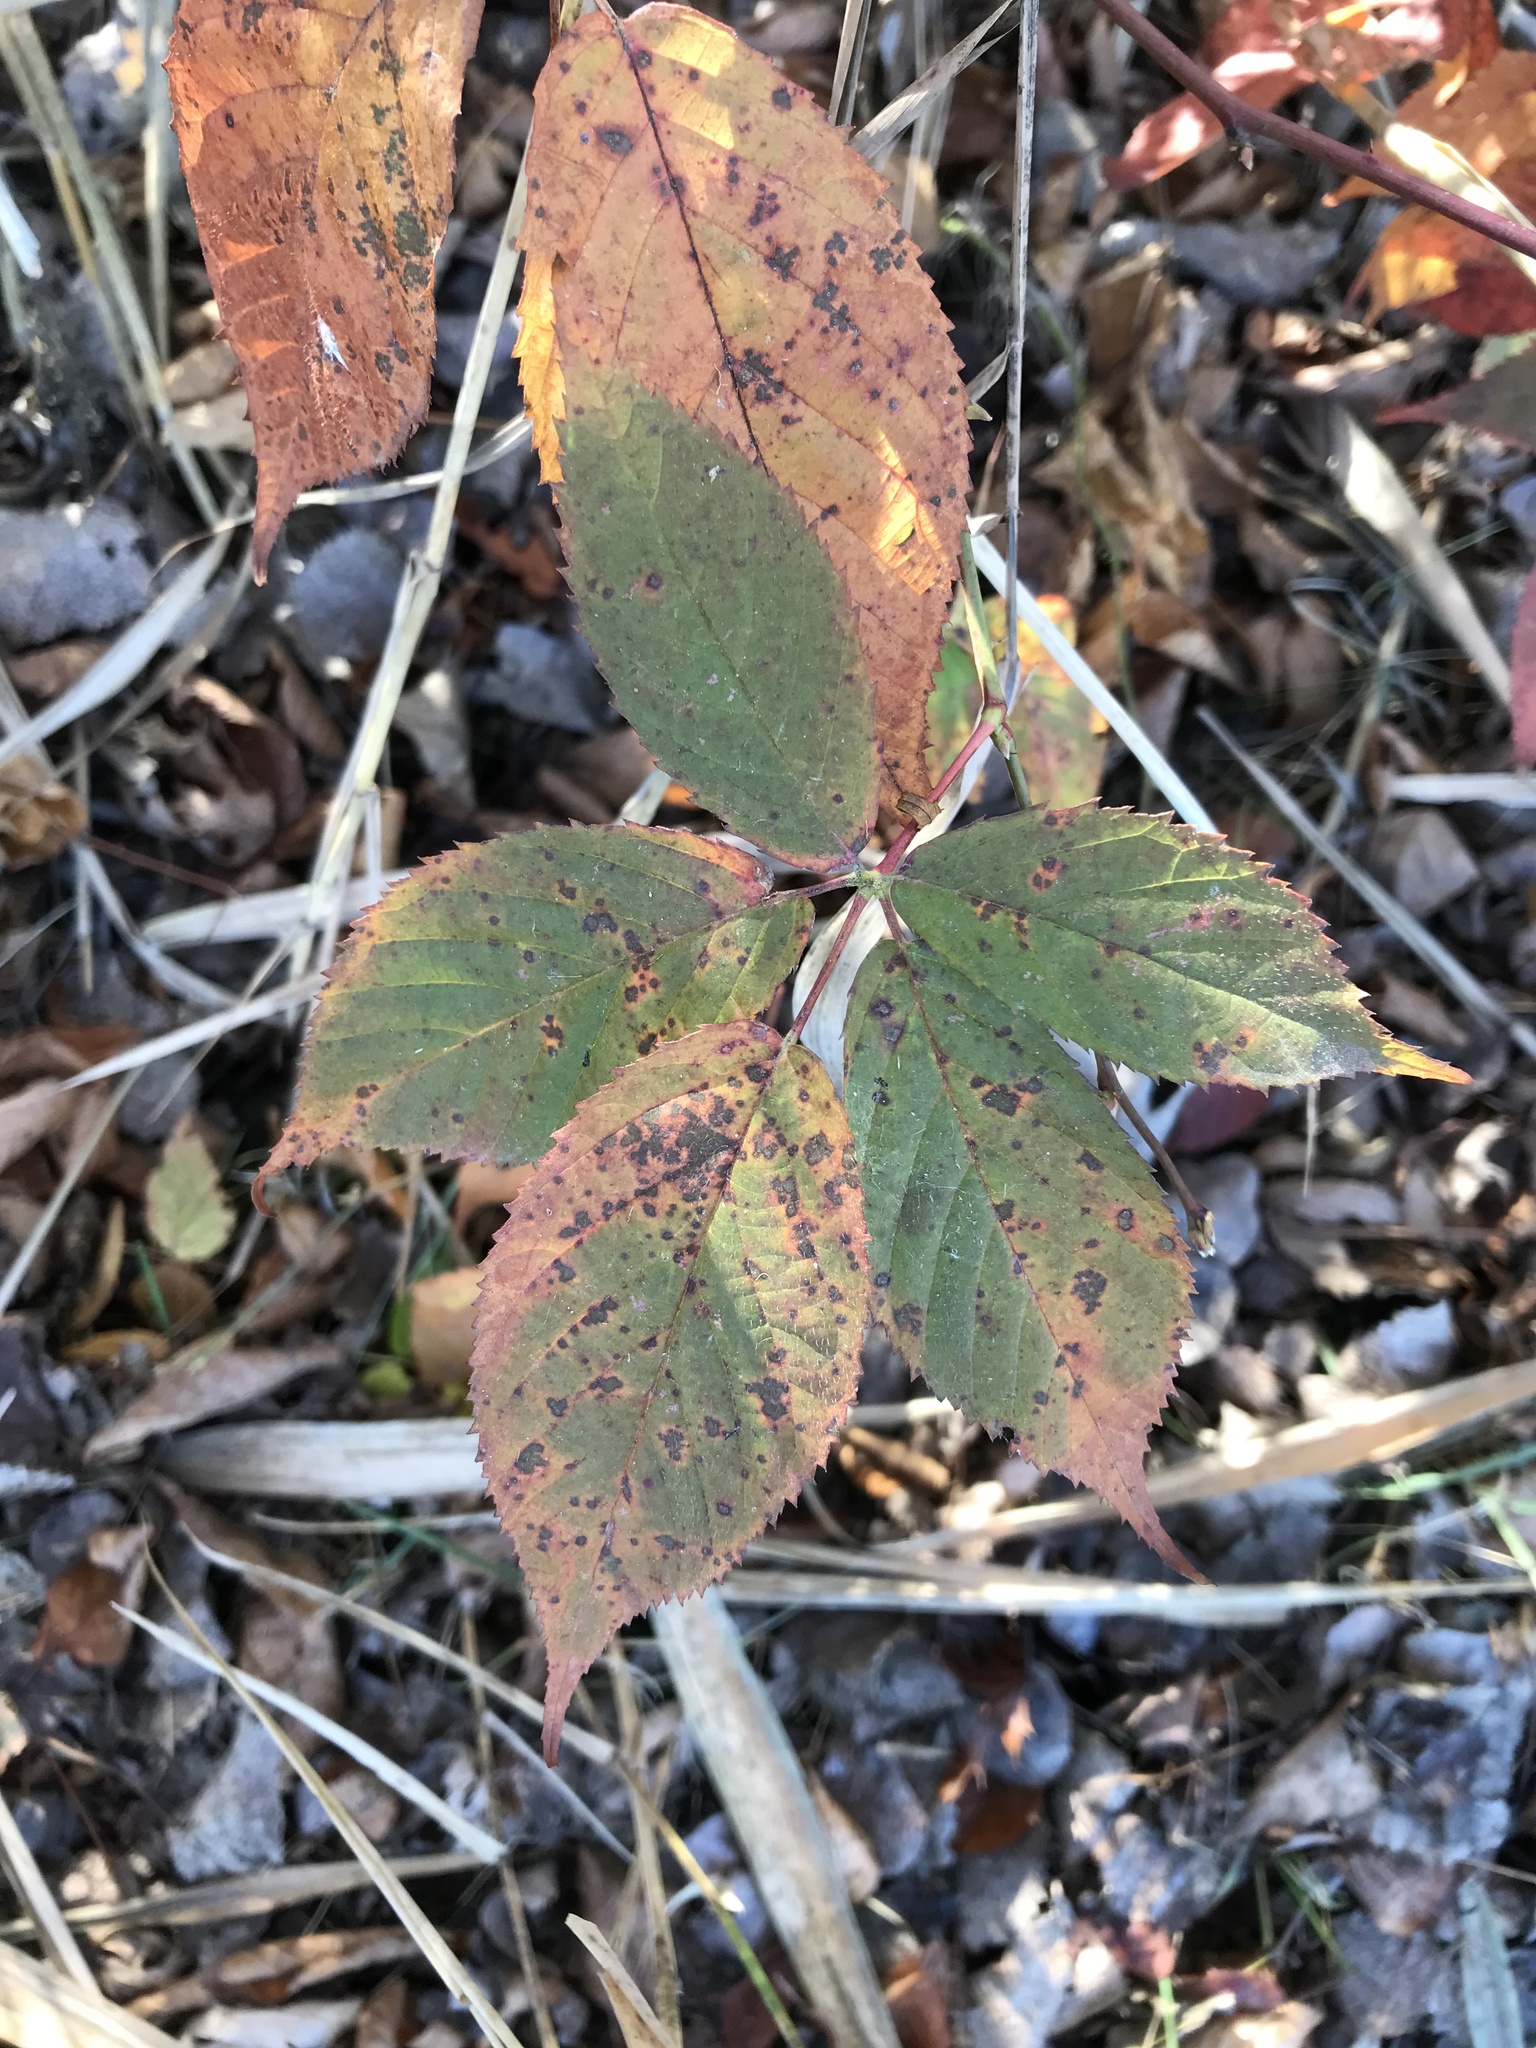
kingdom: Plantae
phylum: Tracheophyta
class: Magnoliopsida
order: Vitales
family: Vitaceae
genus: Parthenocissus
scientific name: Parthenocissus quinquefolia
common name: Virginia-creeper
